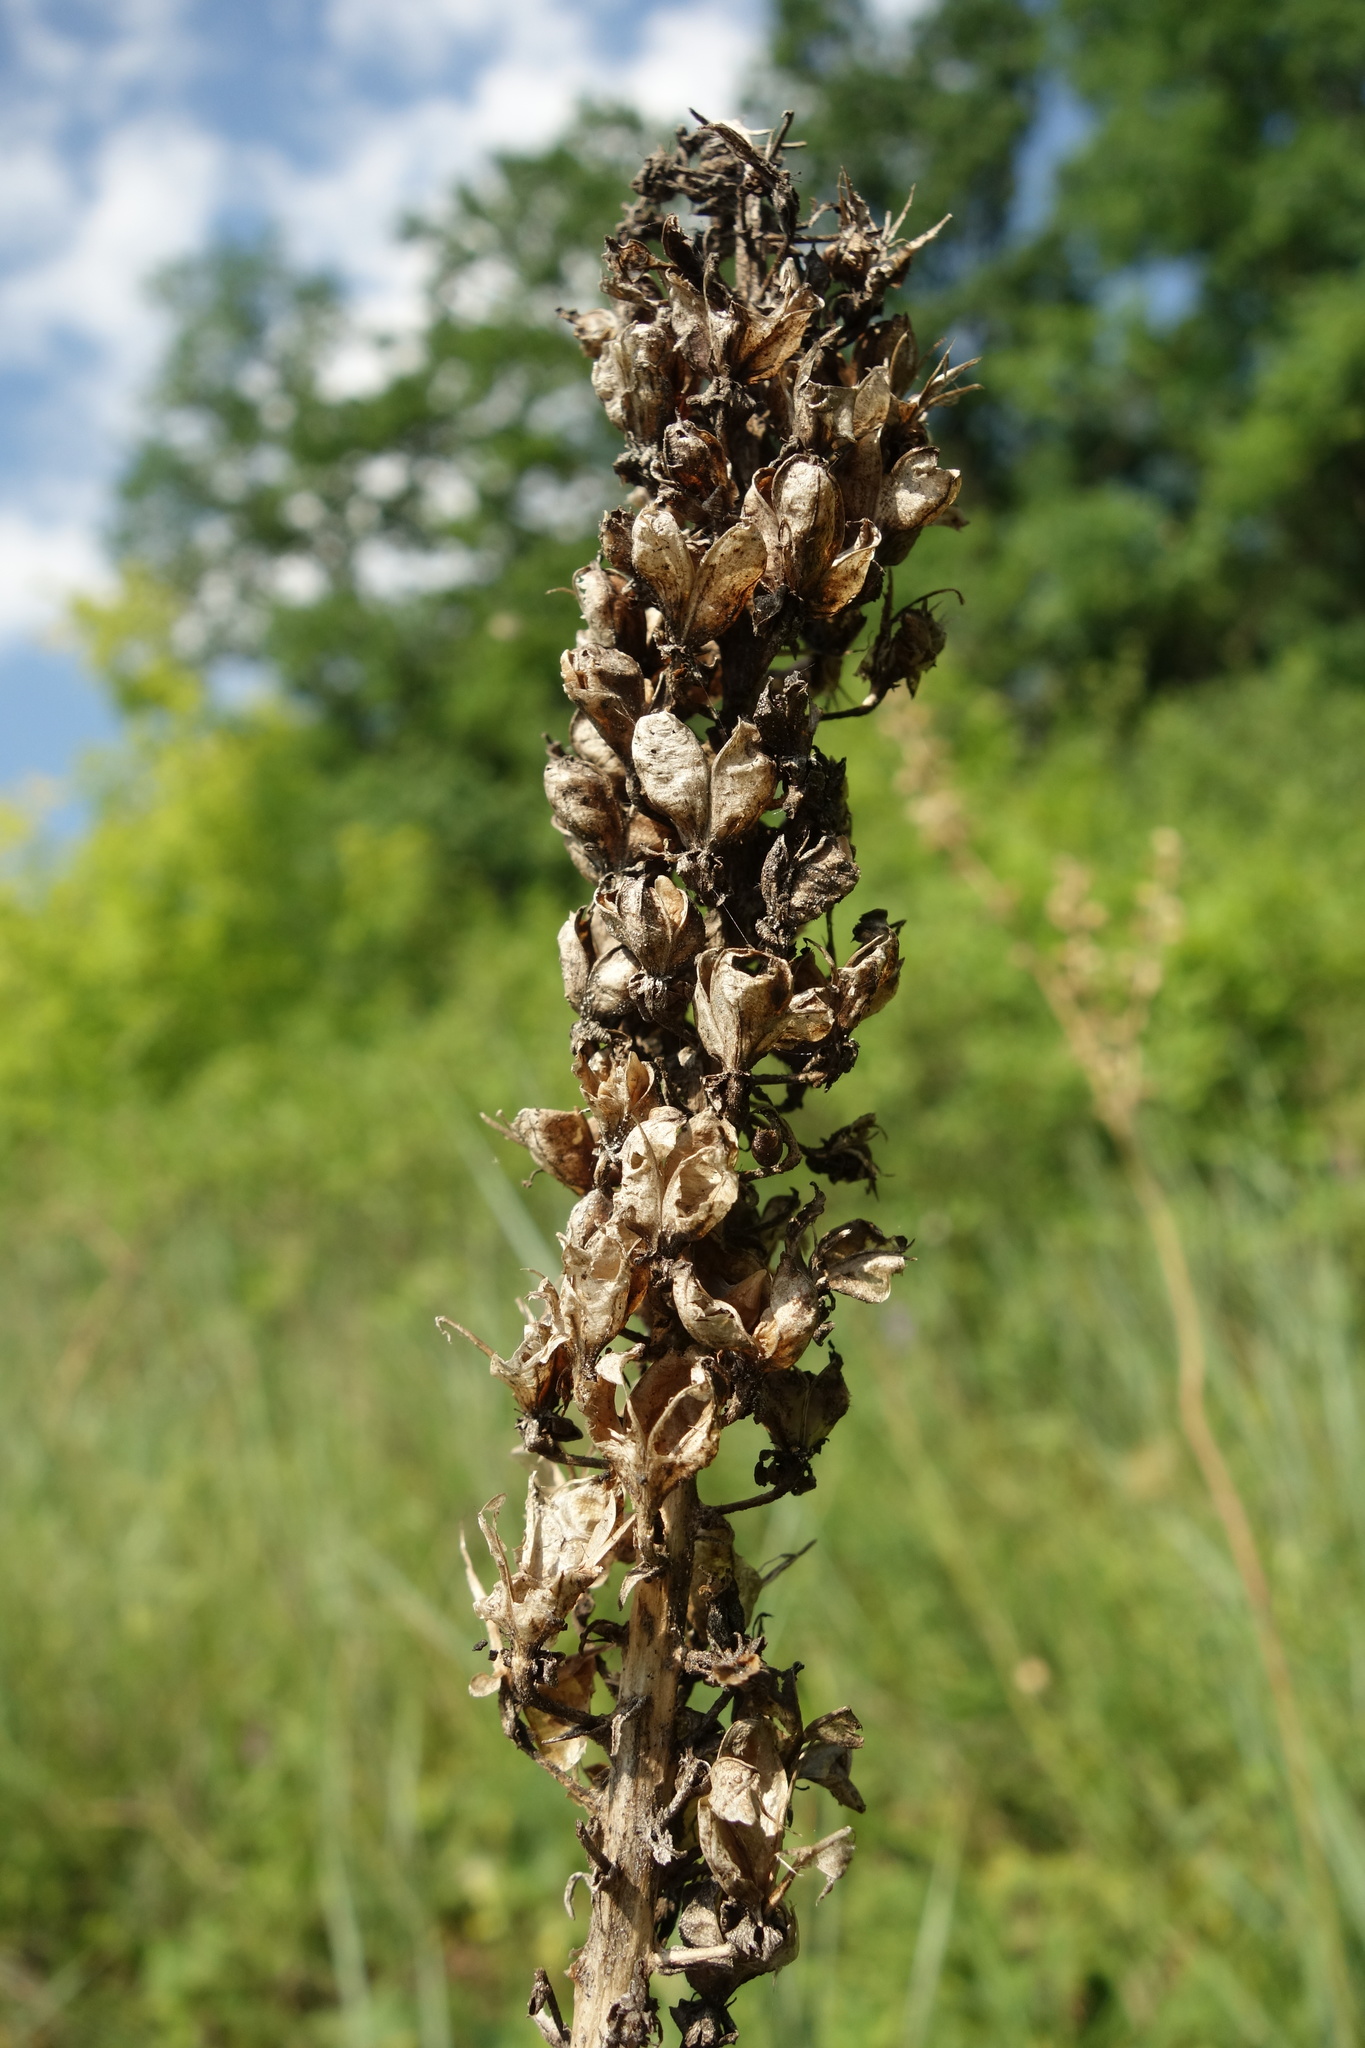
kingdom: Plantae
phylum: Tracheophyta
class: Liliopsida
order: Liliales
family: Melanthiaceae
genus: Veratrum
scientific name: Veratrum nigrum
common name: Black veratrum
